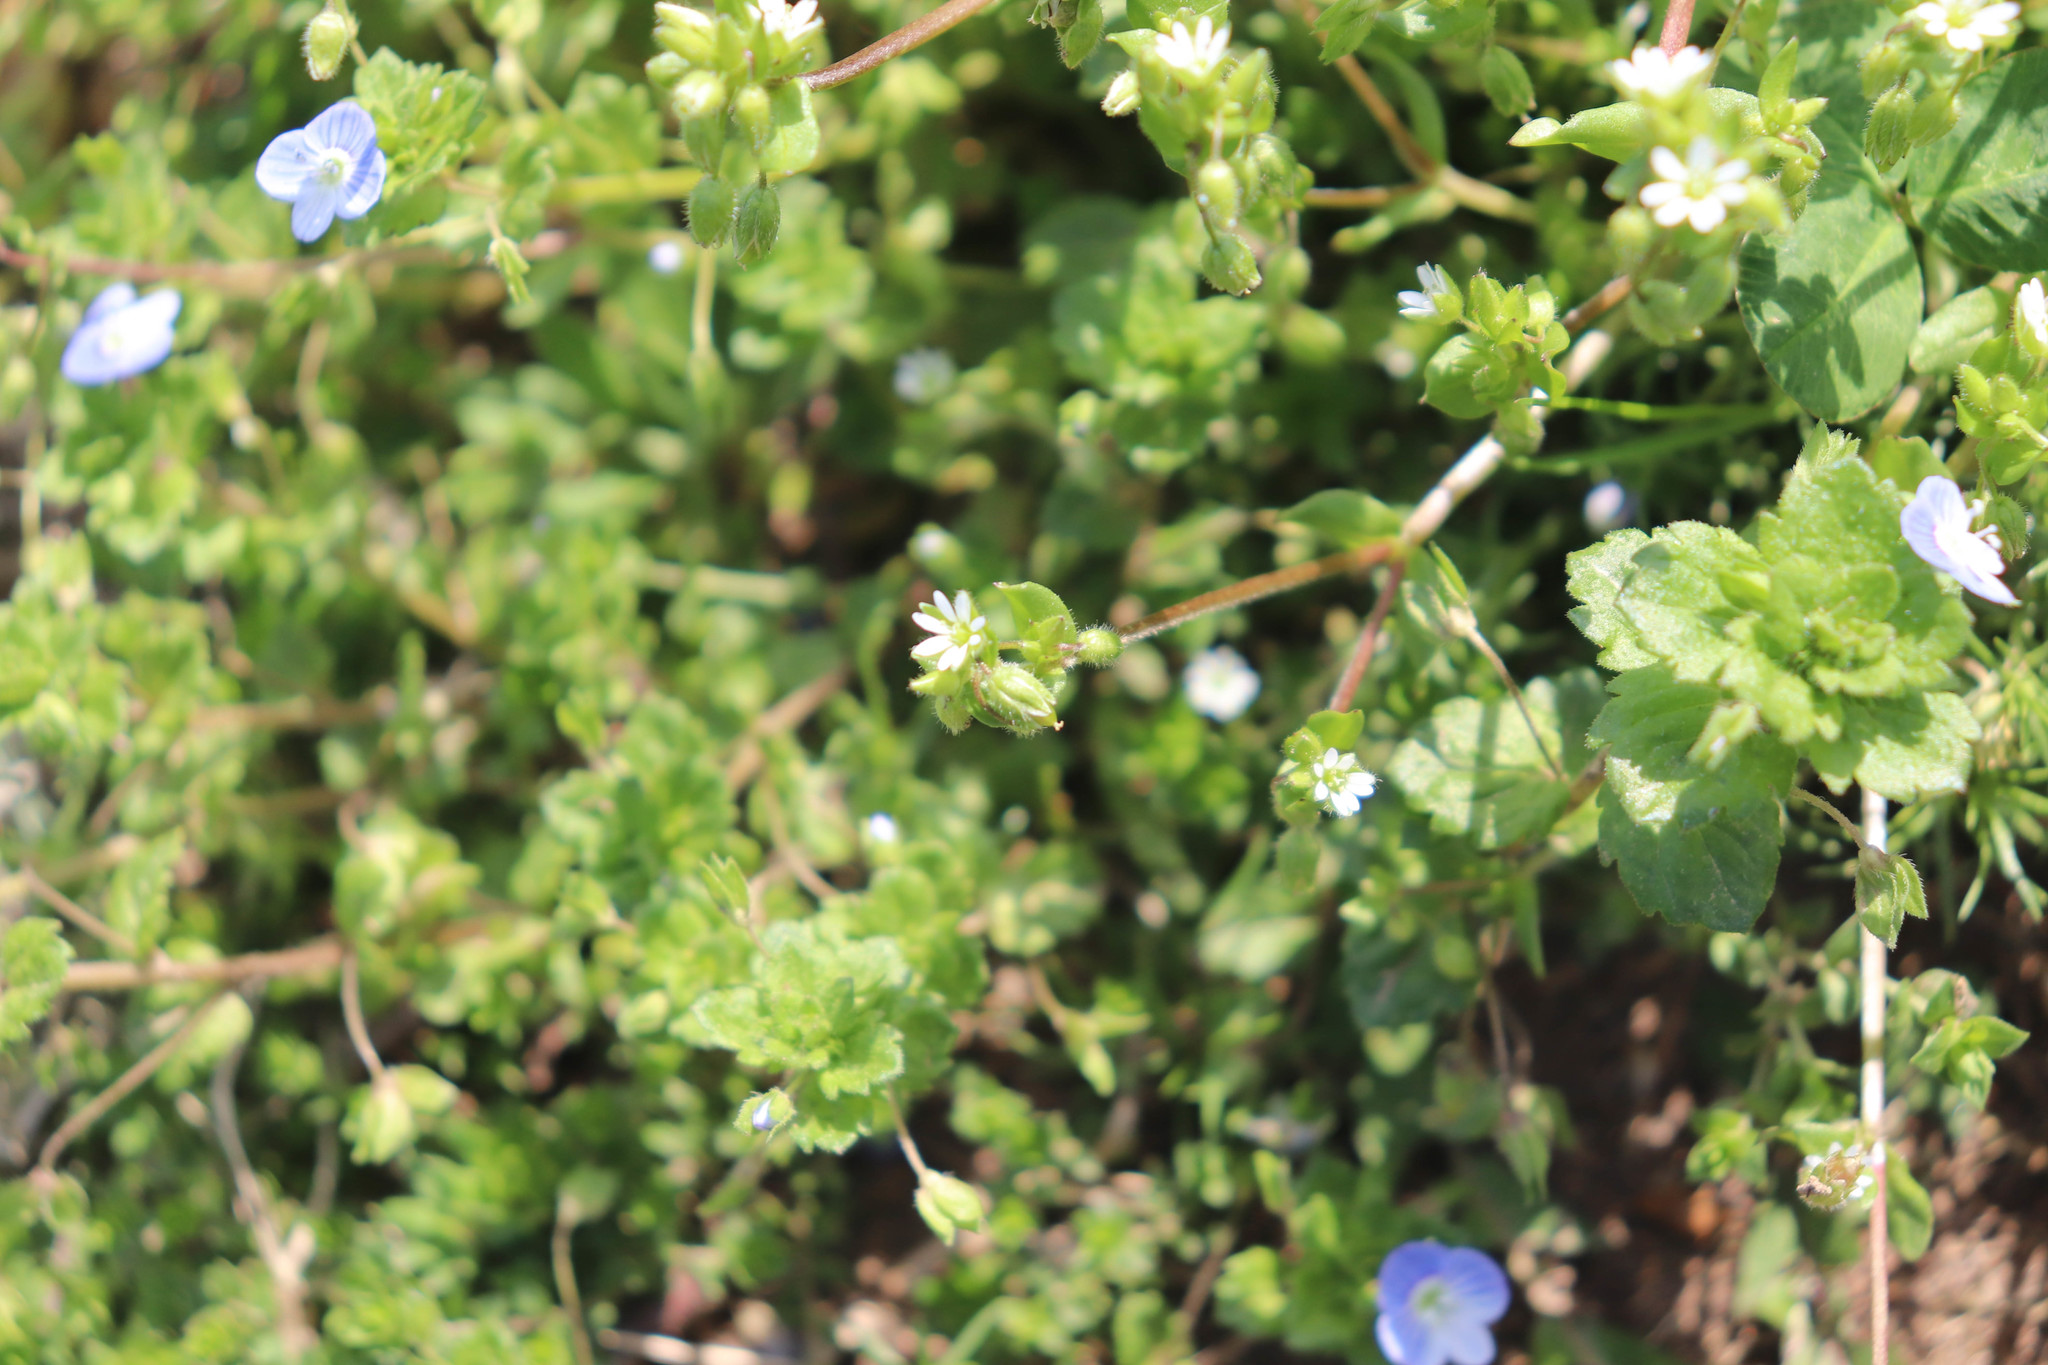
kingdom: Plantae
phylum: Tracheophyta
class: Magnoliopsida
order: Caryophyllales
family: Caryophyllaceae
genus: Stellaria
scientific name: Stellaria media
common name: Common chickweed
